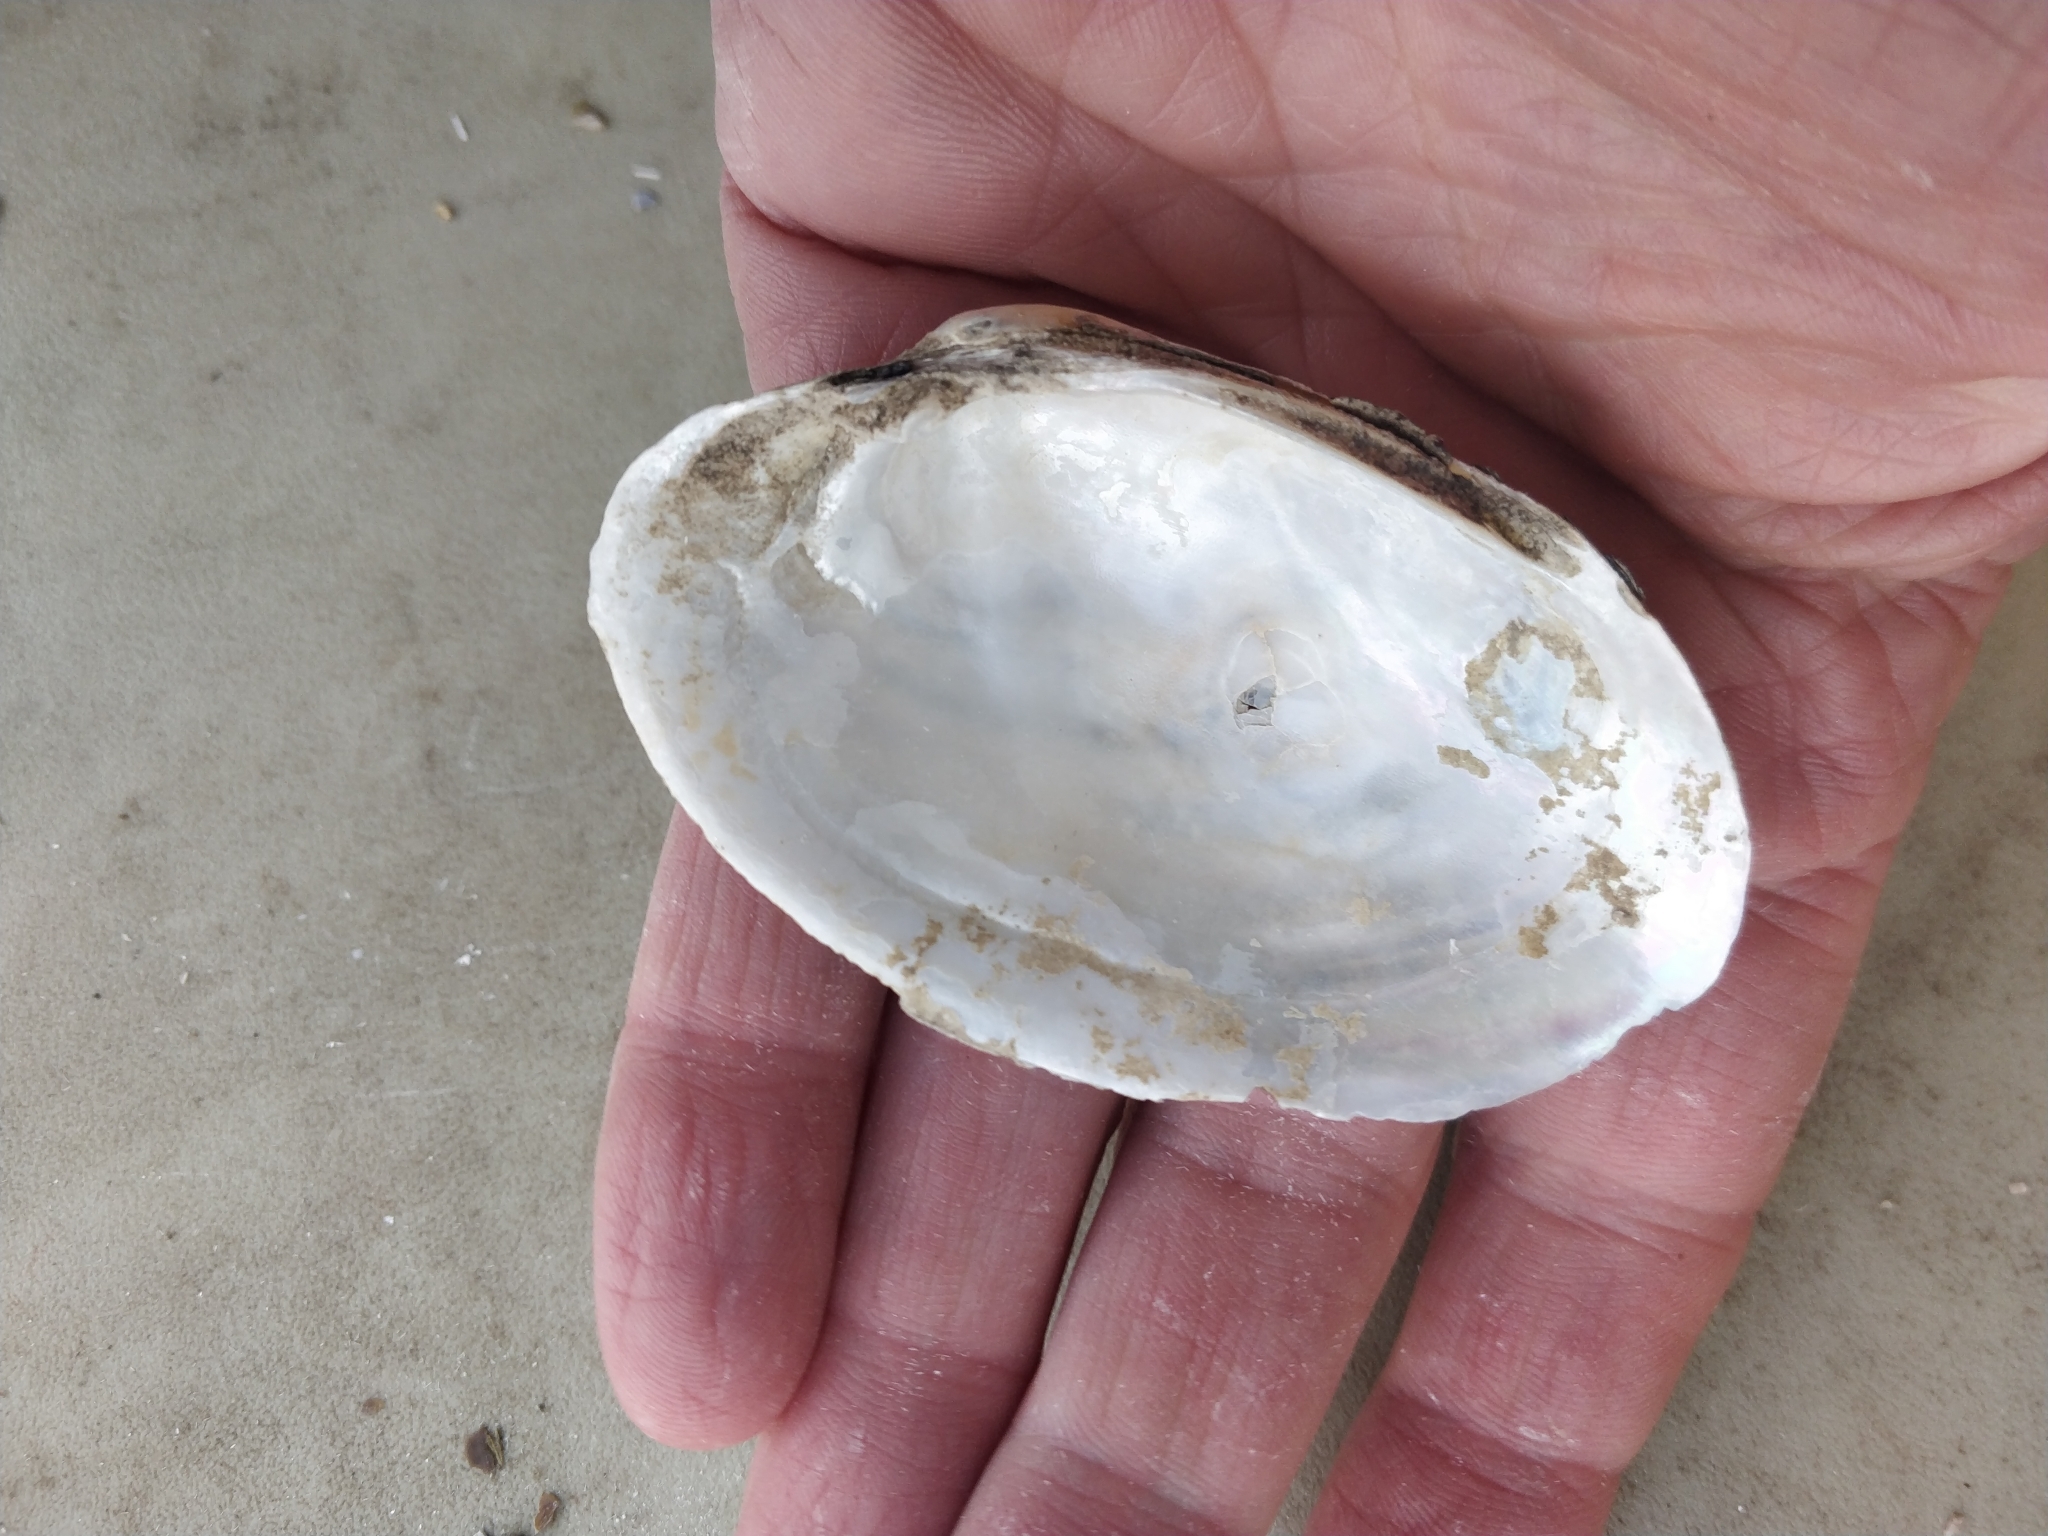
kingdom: Animalia
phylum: Mollusca
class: Bivalvia
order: Unionida
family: Unionidae
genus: Lampsilis
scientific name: Lampsilis cardium
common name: Plain pocketbook
